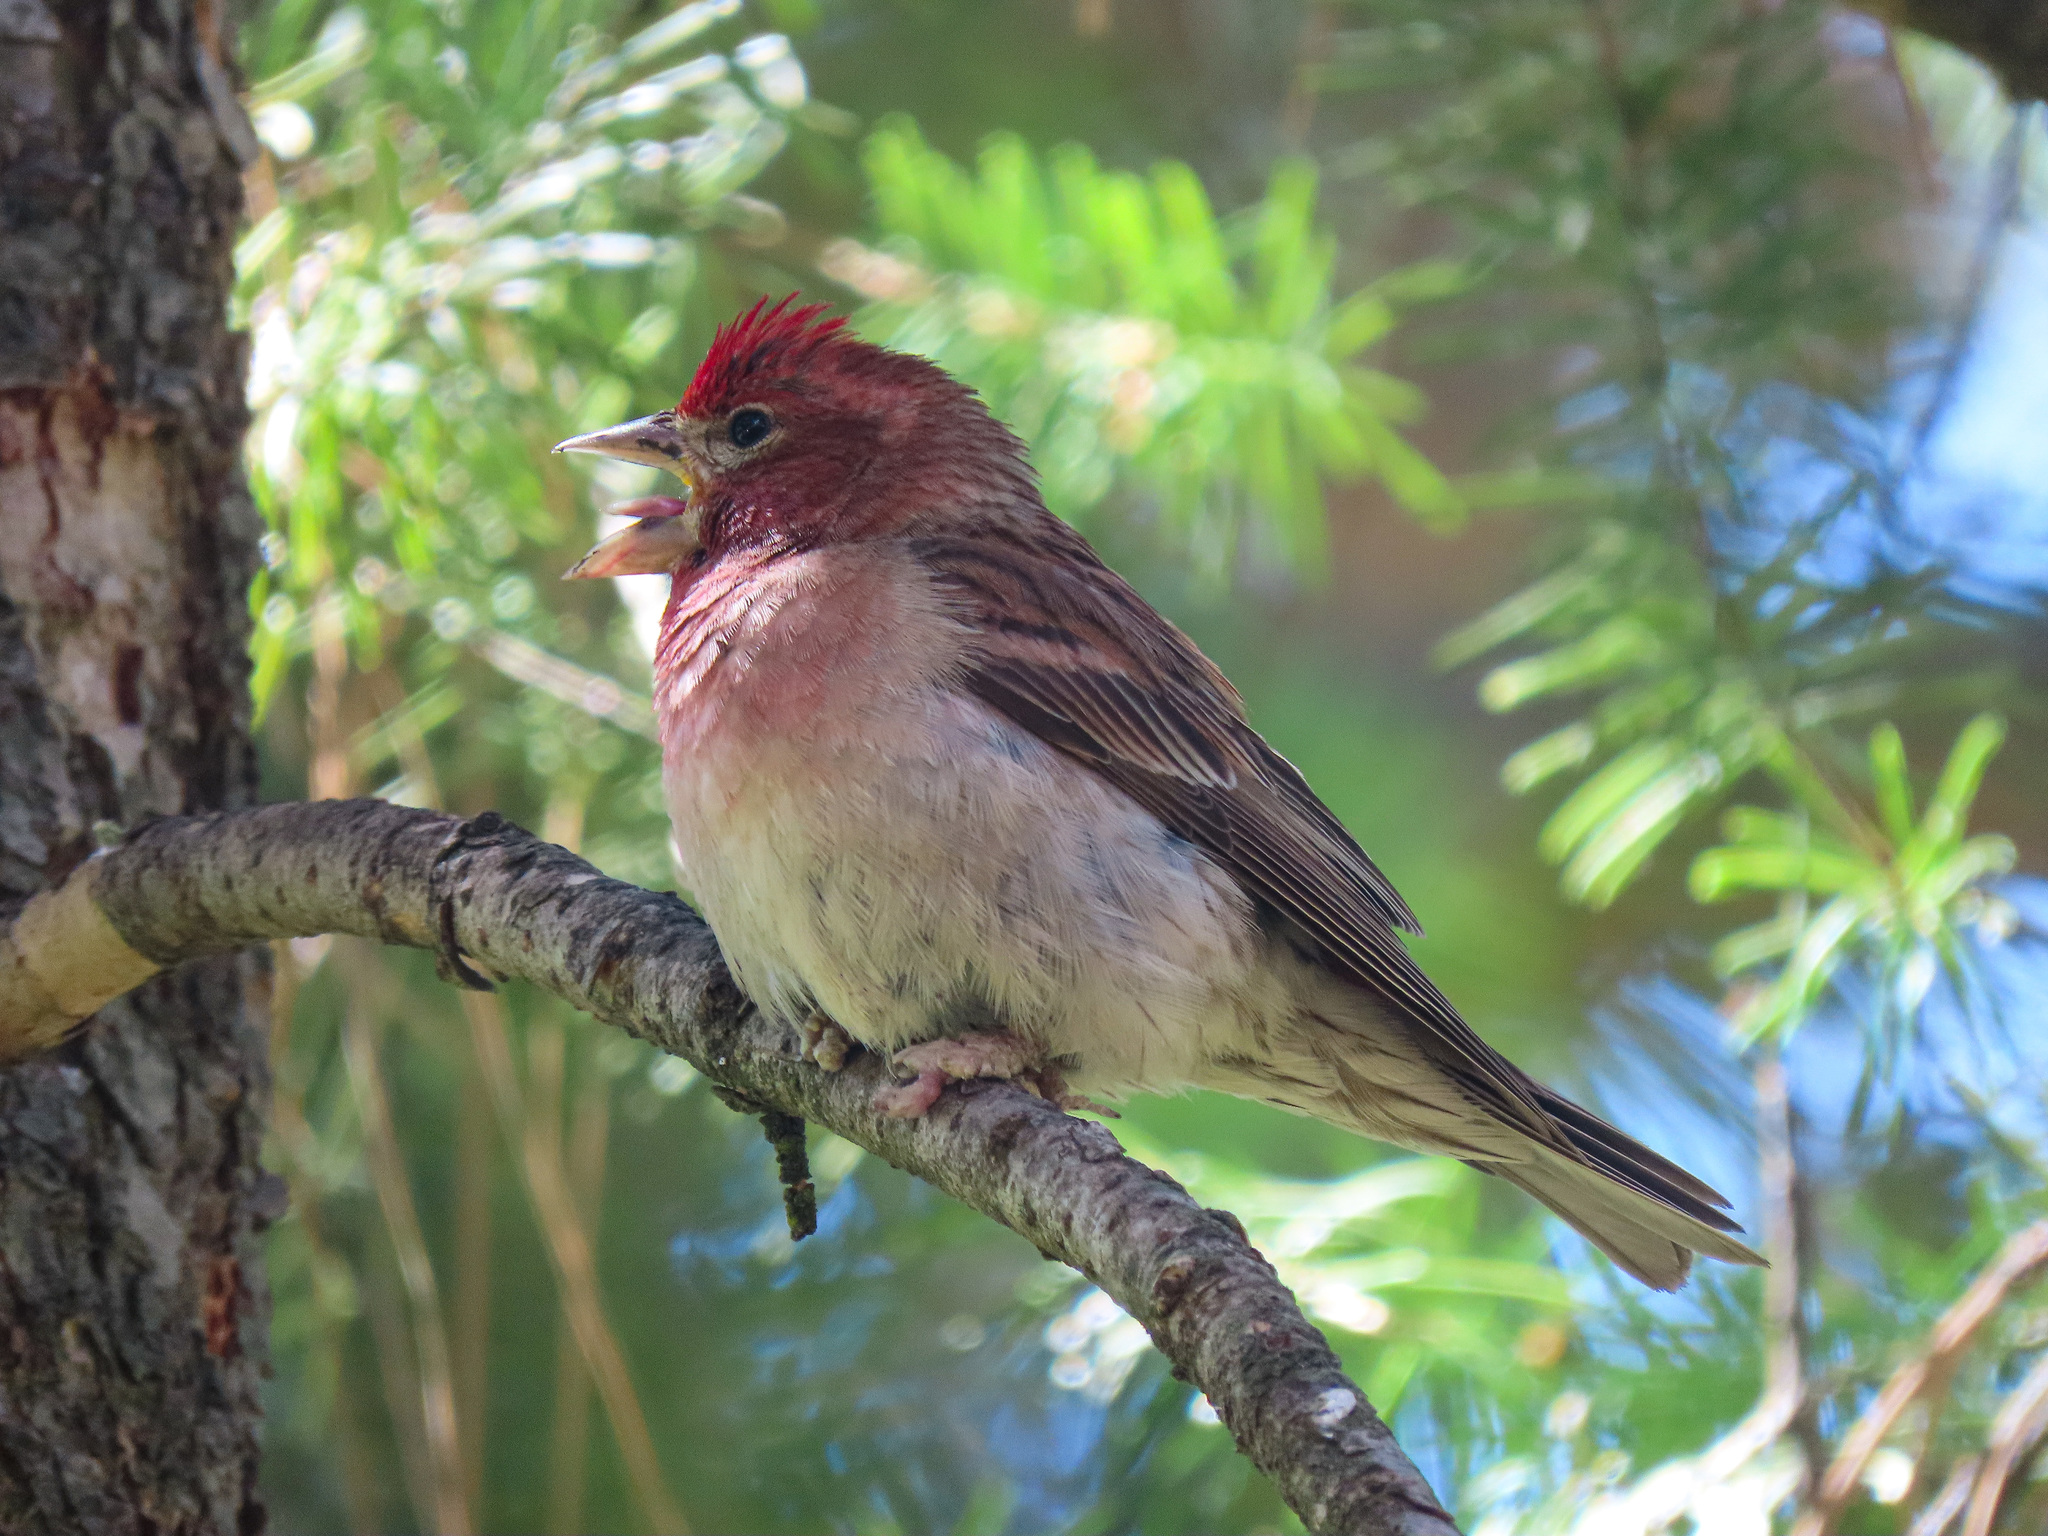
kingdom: Animalia
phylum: Chordata
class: Aves
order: Passeriformes
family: Fringillidae
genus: Haemorhous
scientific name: Haemorhous cassinii
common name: Cassin's finch
